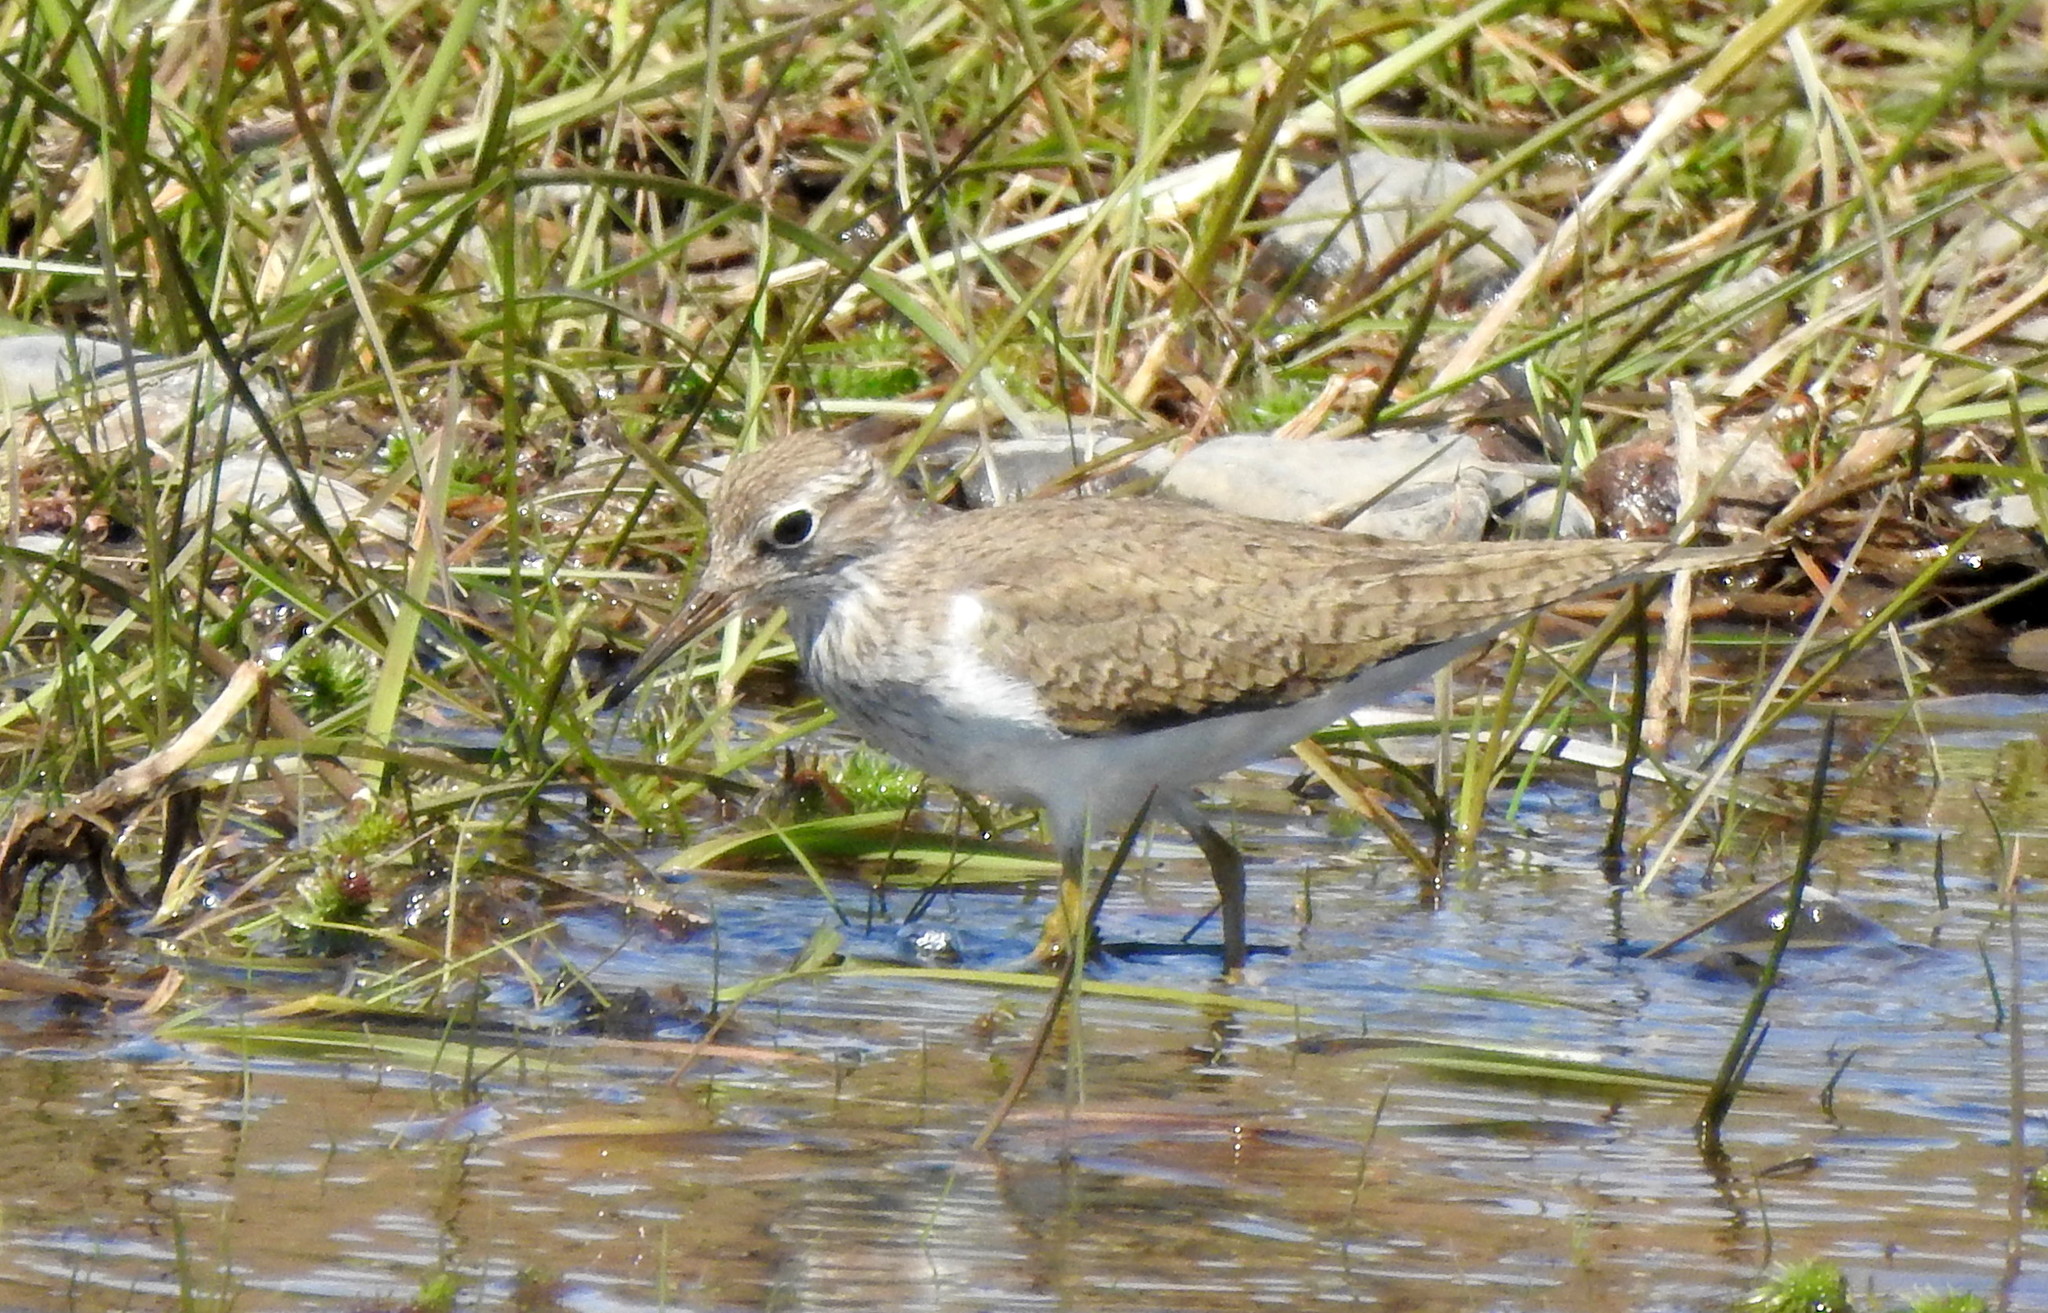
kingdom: Animalia
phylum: Chordata
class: Aves
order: Charadriiformes
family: Scolopacidae
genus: Actitis
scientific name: Actitis hypoleucos
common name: Common sandpiper
